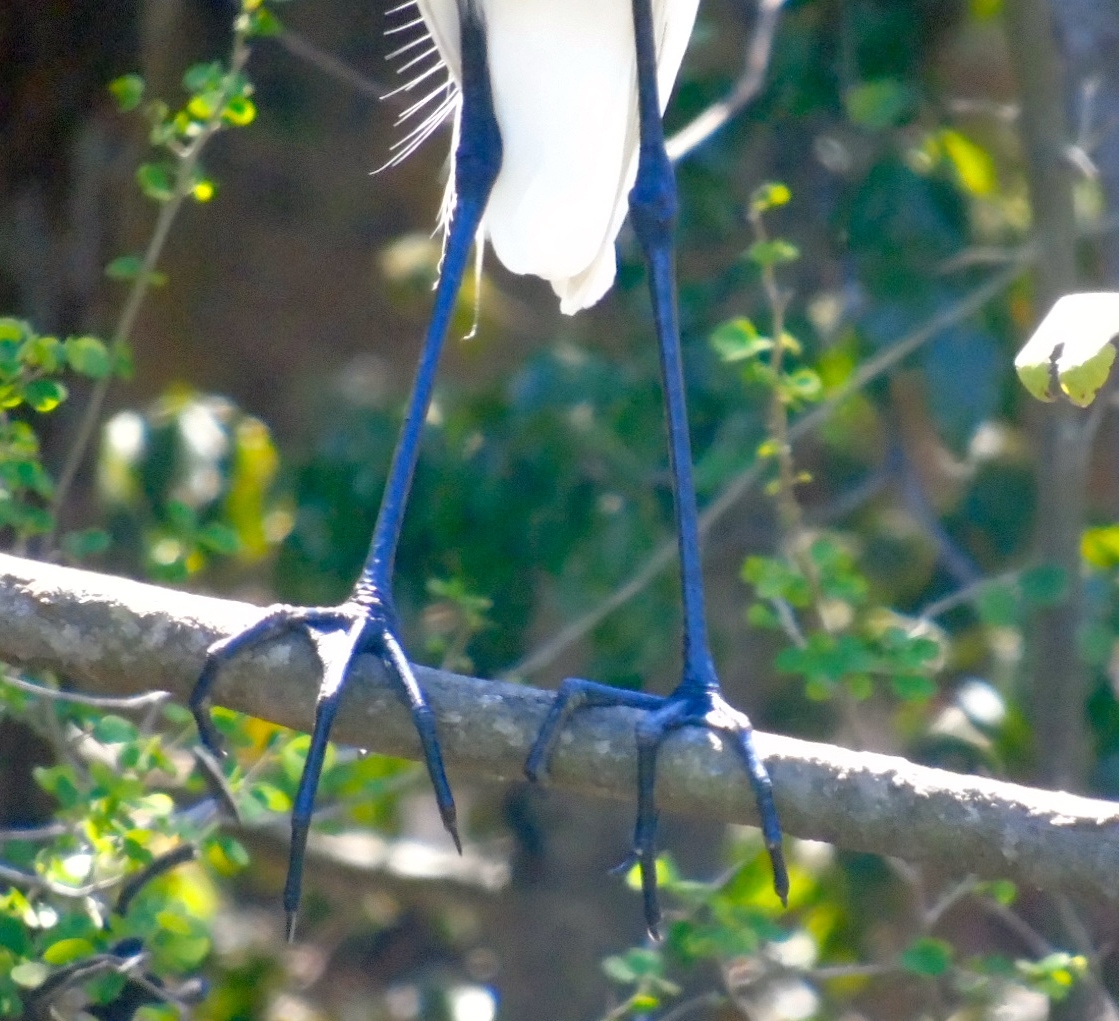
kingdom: Animalia
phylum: Chordata
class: Aves
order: Pelecaniformes
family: Ardeidae
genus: Ardea
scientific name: Ardea alba
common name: Great egret
